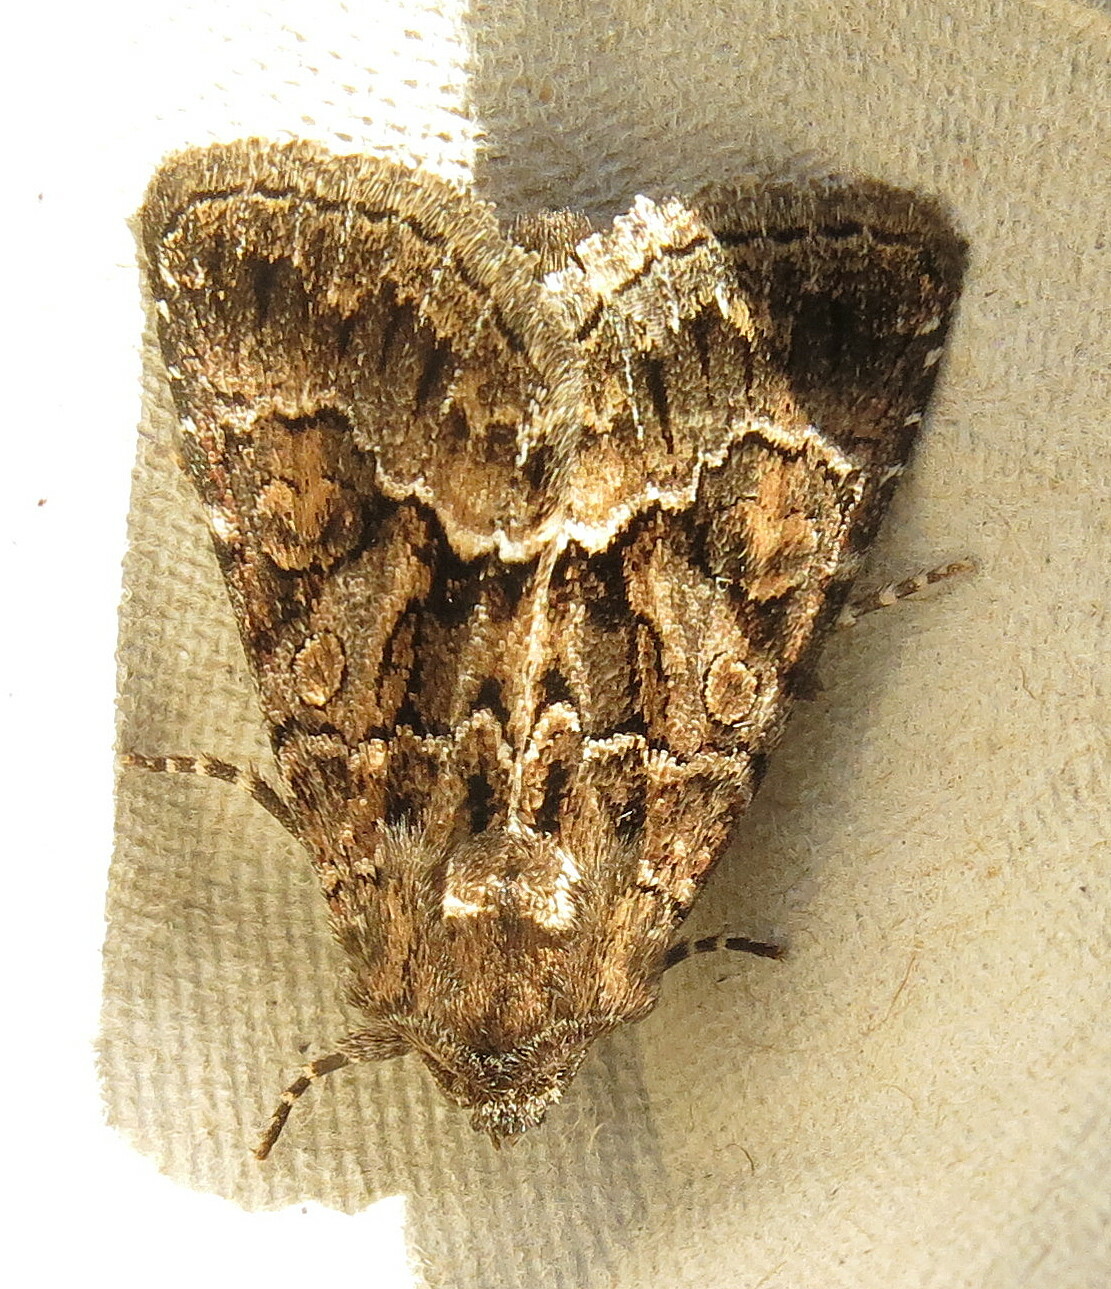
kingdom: Animalia
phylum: Arthropoda
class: Insecta
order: Lepidoptera
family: Noctuidae
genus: Thalpophila
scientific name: Thalpophila matura
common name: Straw underwing
